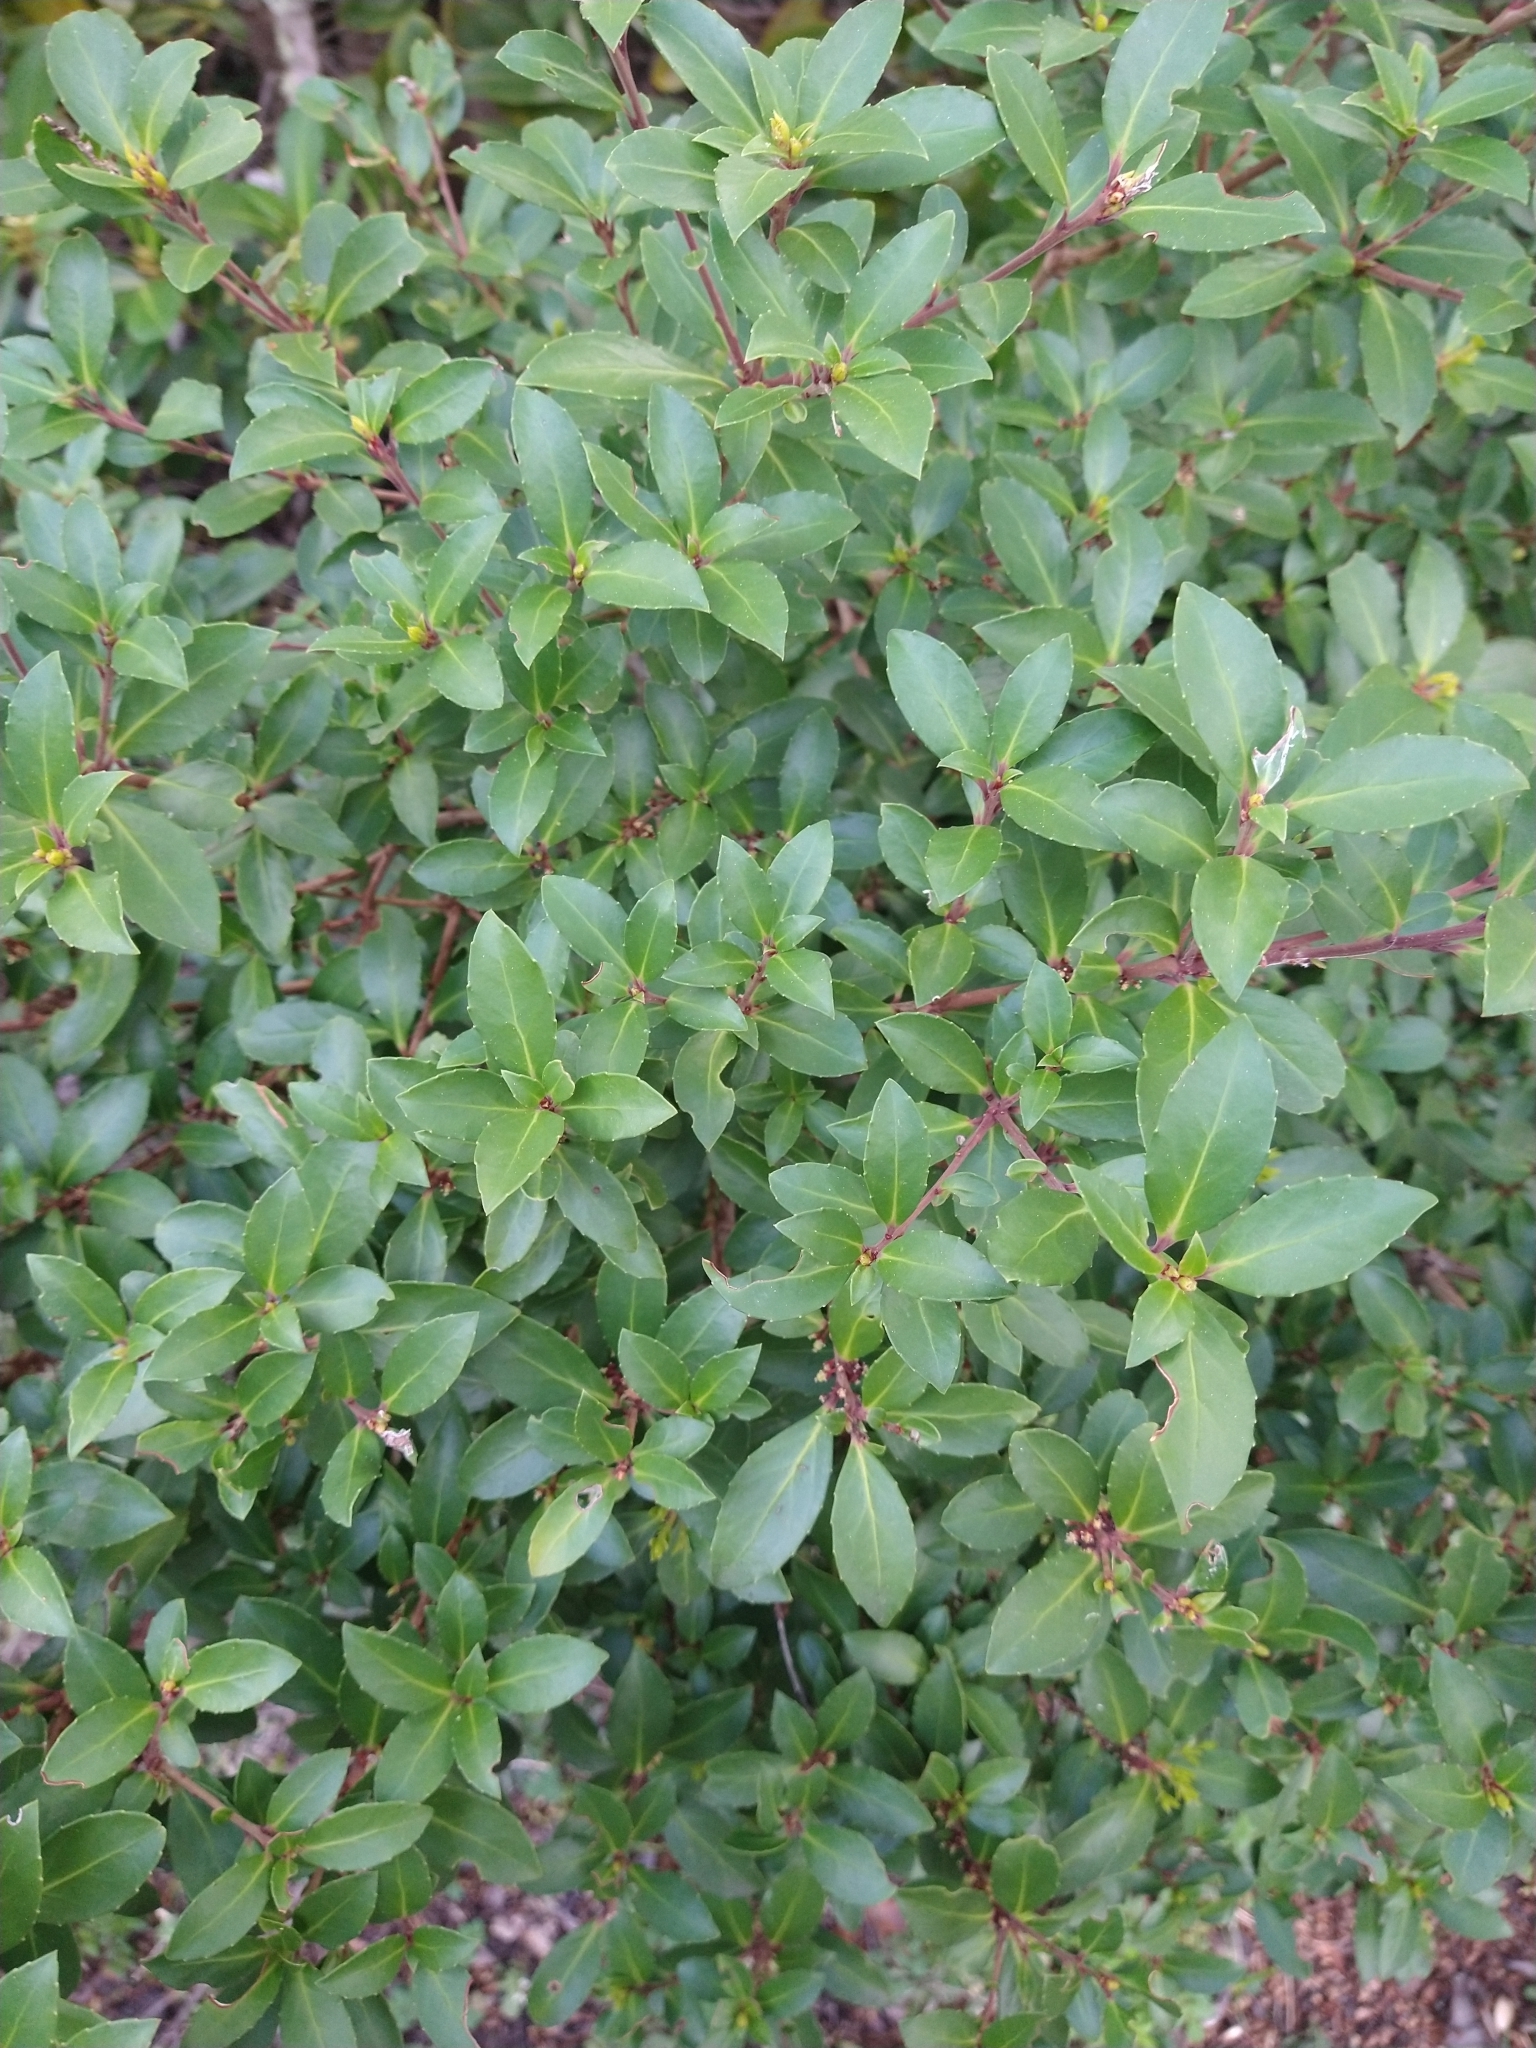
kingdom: Plantae
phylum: Tracheophyta
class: Magnoliopsida
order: Celastrales
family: Celastraceae
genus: Maytenus
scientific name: Maytenus magellanica
